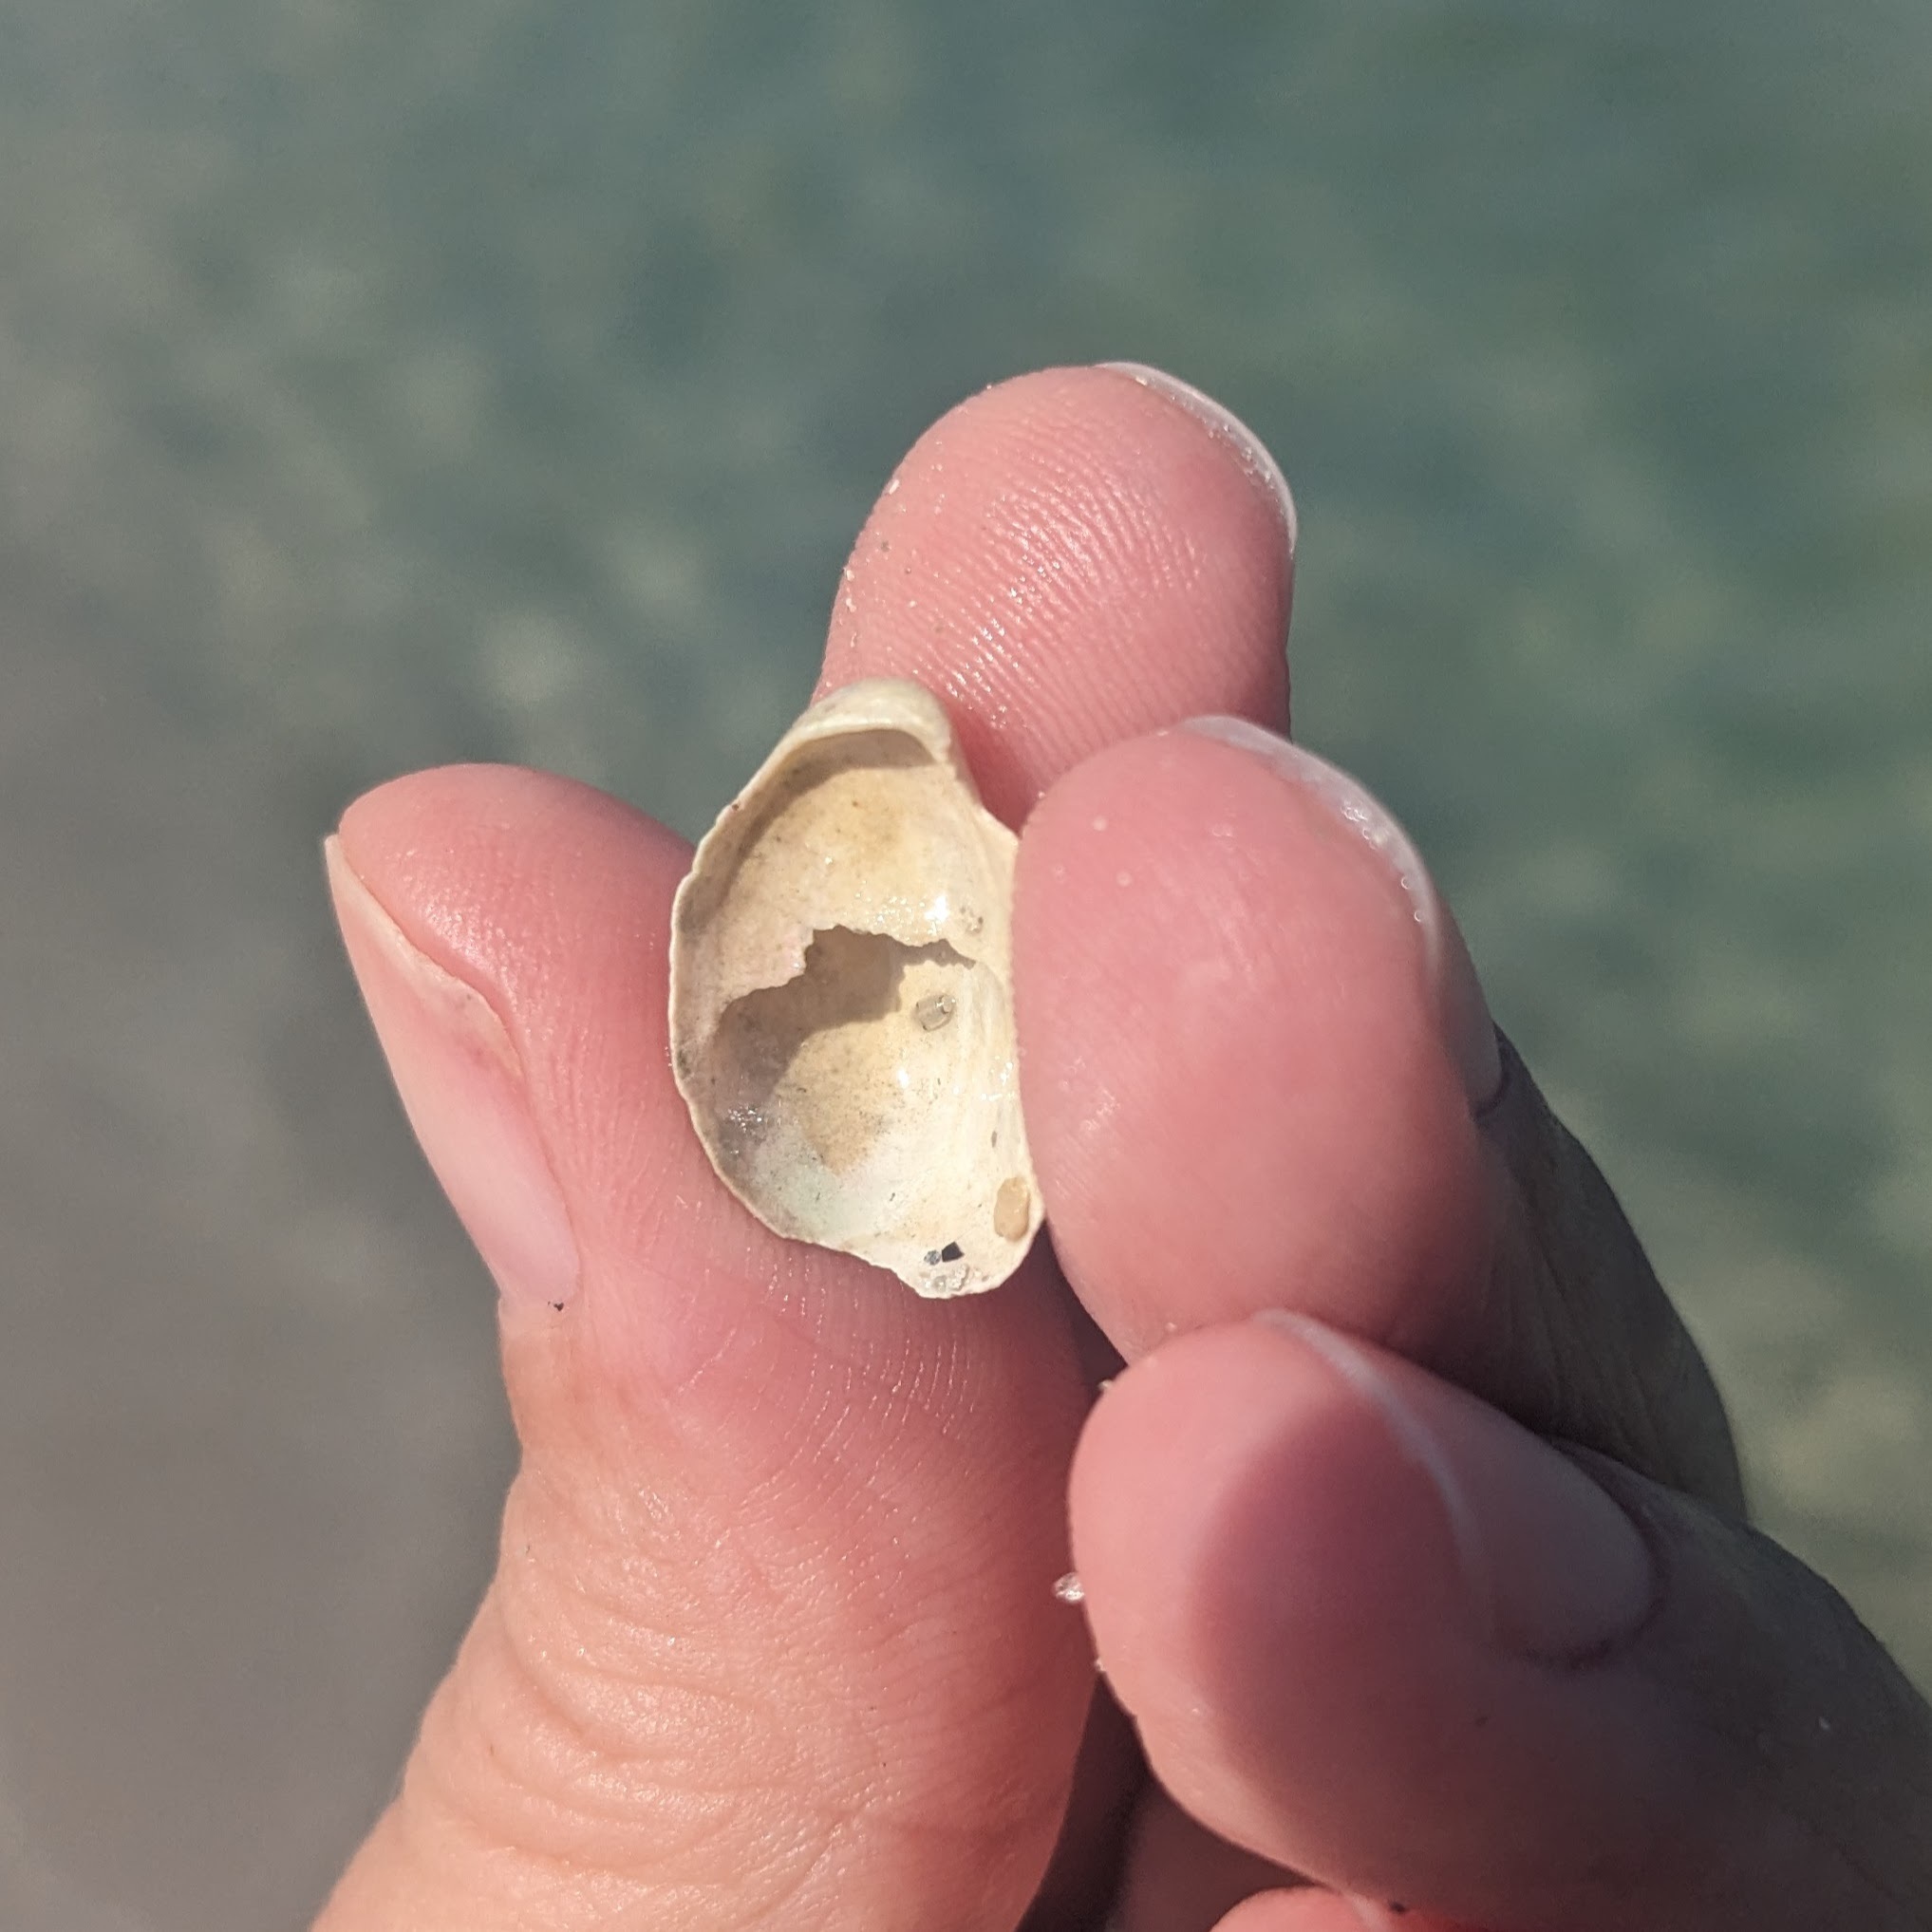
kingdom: Animalia
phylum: Mollusca
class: Gastropoda
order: Littorinimorpha
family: Calyptraeidae
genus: Crepidula
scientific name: Crepidula fornicata
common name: Slipper limpet
